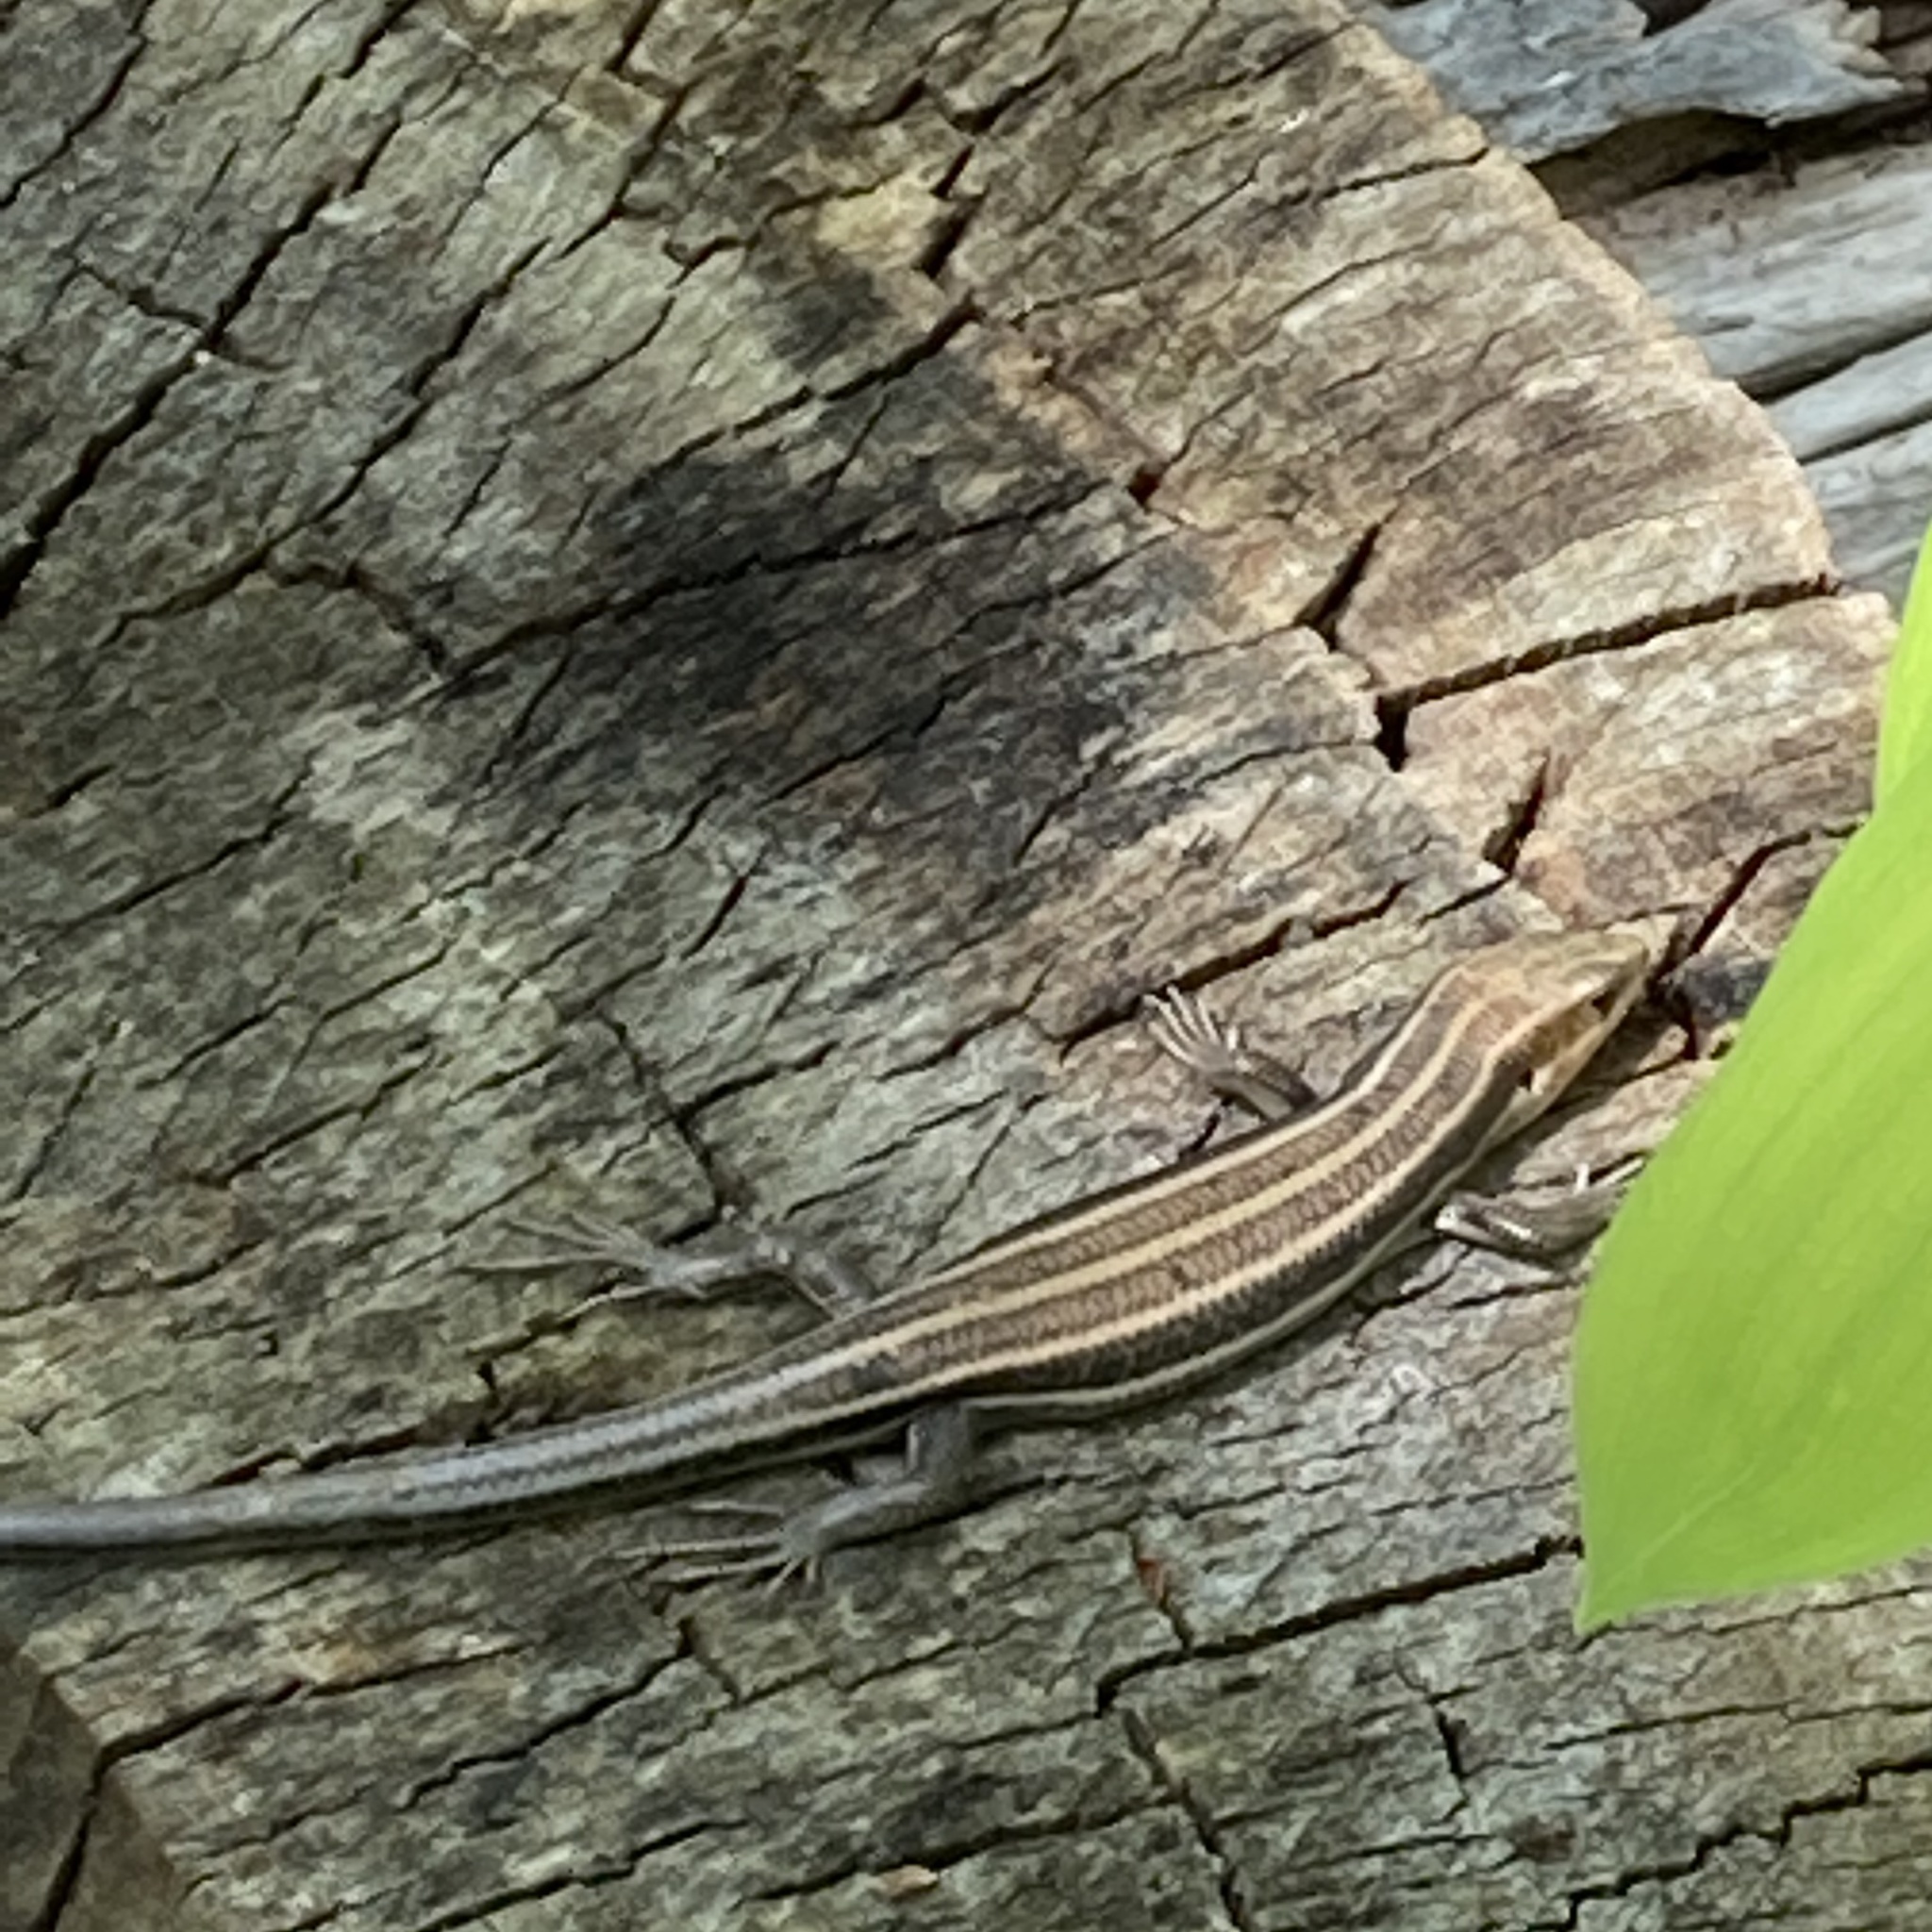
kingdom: Animalia
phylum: Chordata
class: Squamata
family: Scincidae
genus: Plestiodon
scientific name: Plestiodon fasciatus
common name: Five-lined skink
